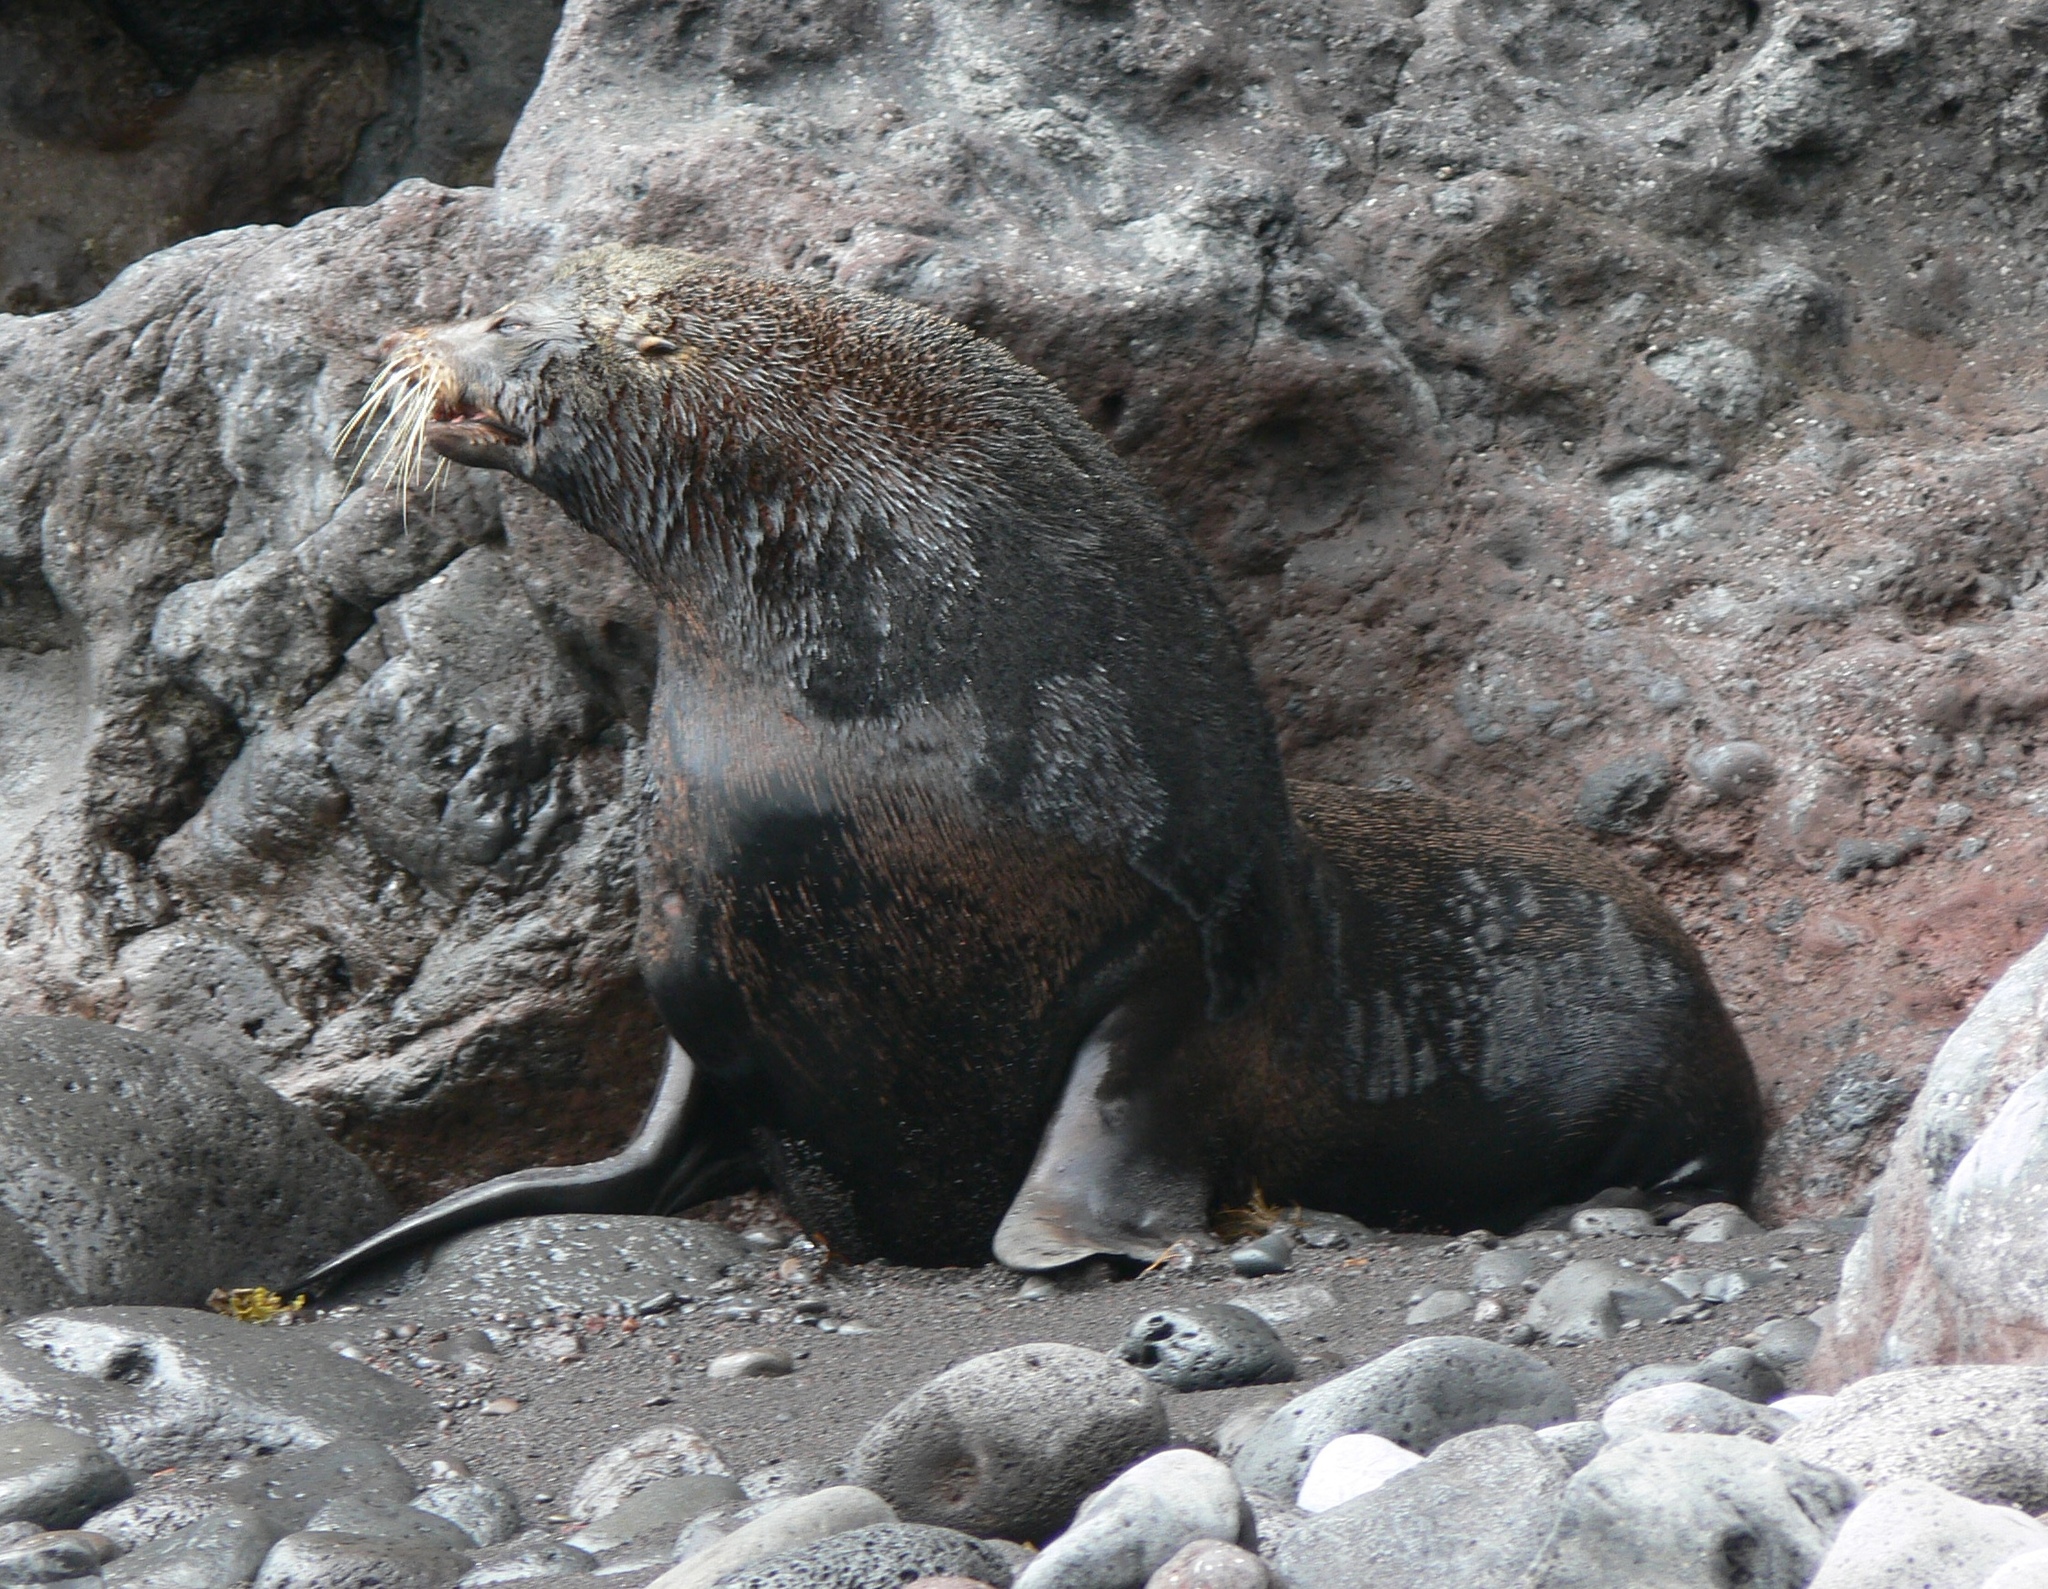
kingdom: Animalia
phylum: Chordata
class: Mammalia
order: Carnivora
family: Otariidae
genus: Arctocephalus
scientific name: Arctocephalus philippii
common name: Juan fernández fur seal
